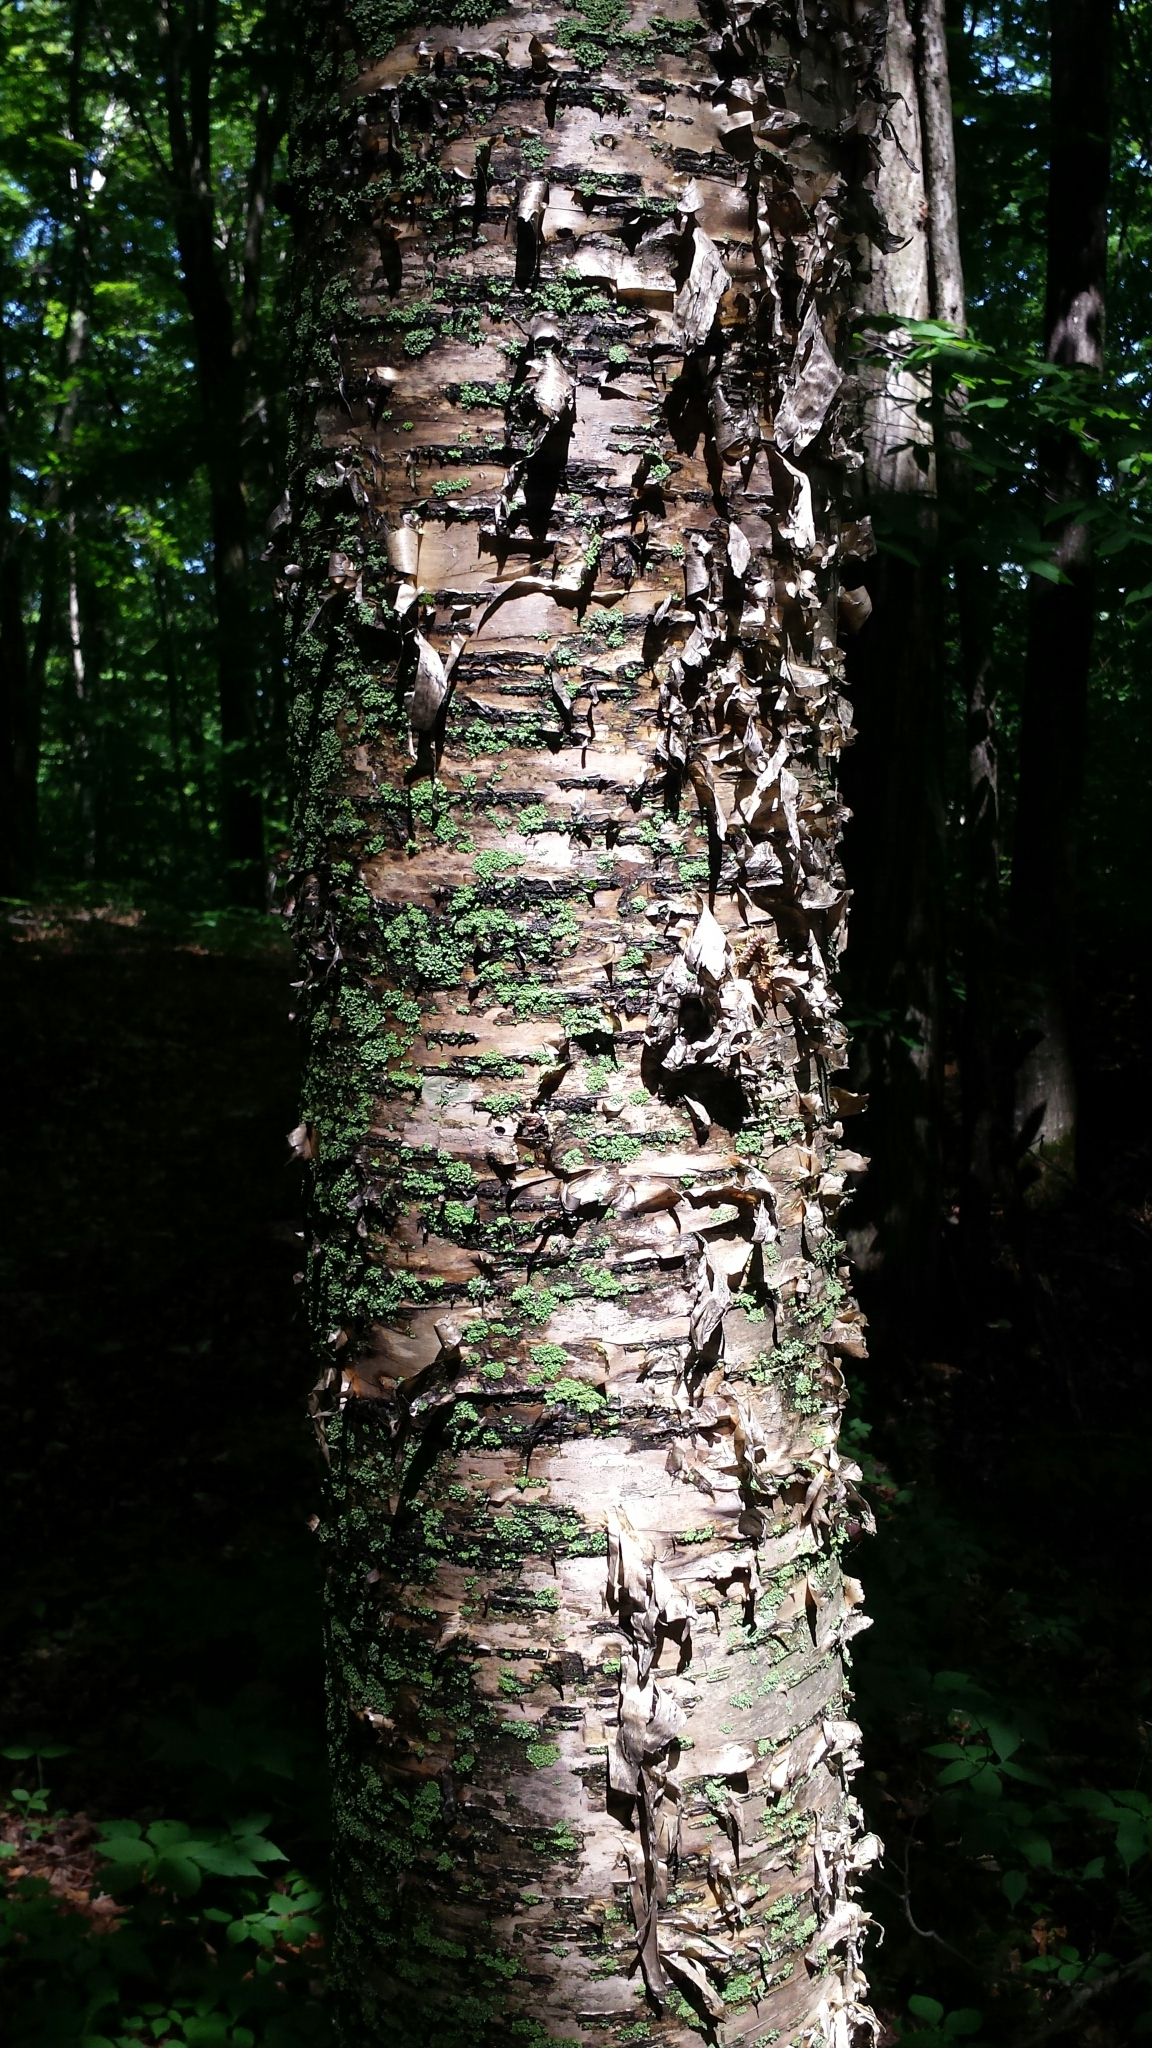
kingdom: Plantae
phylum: Tracheophyta
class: Magnoliopsida
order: Fagales
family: Betulaceae
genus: Betula
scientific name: Betula alleghaniensis
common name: Yellow birch
